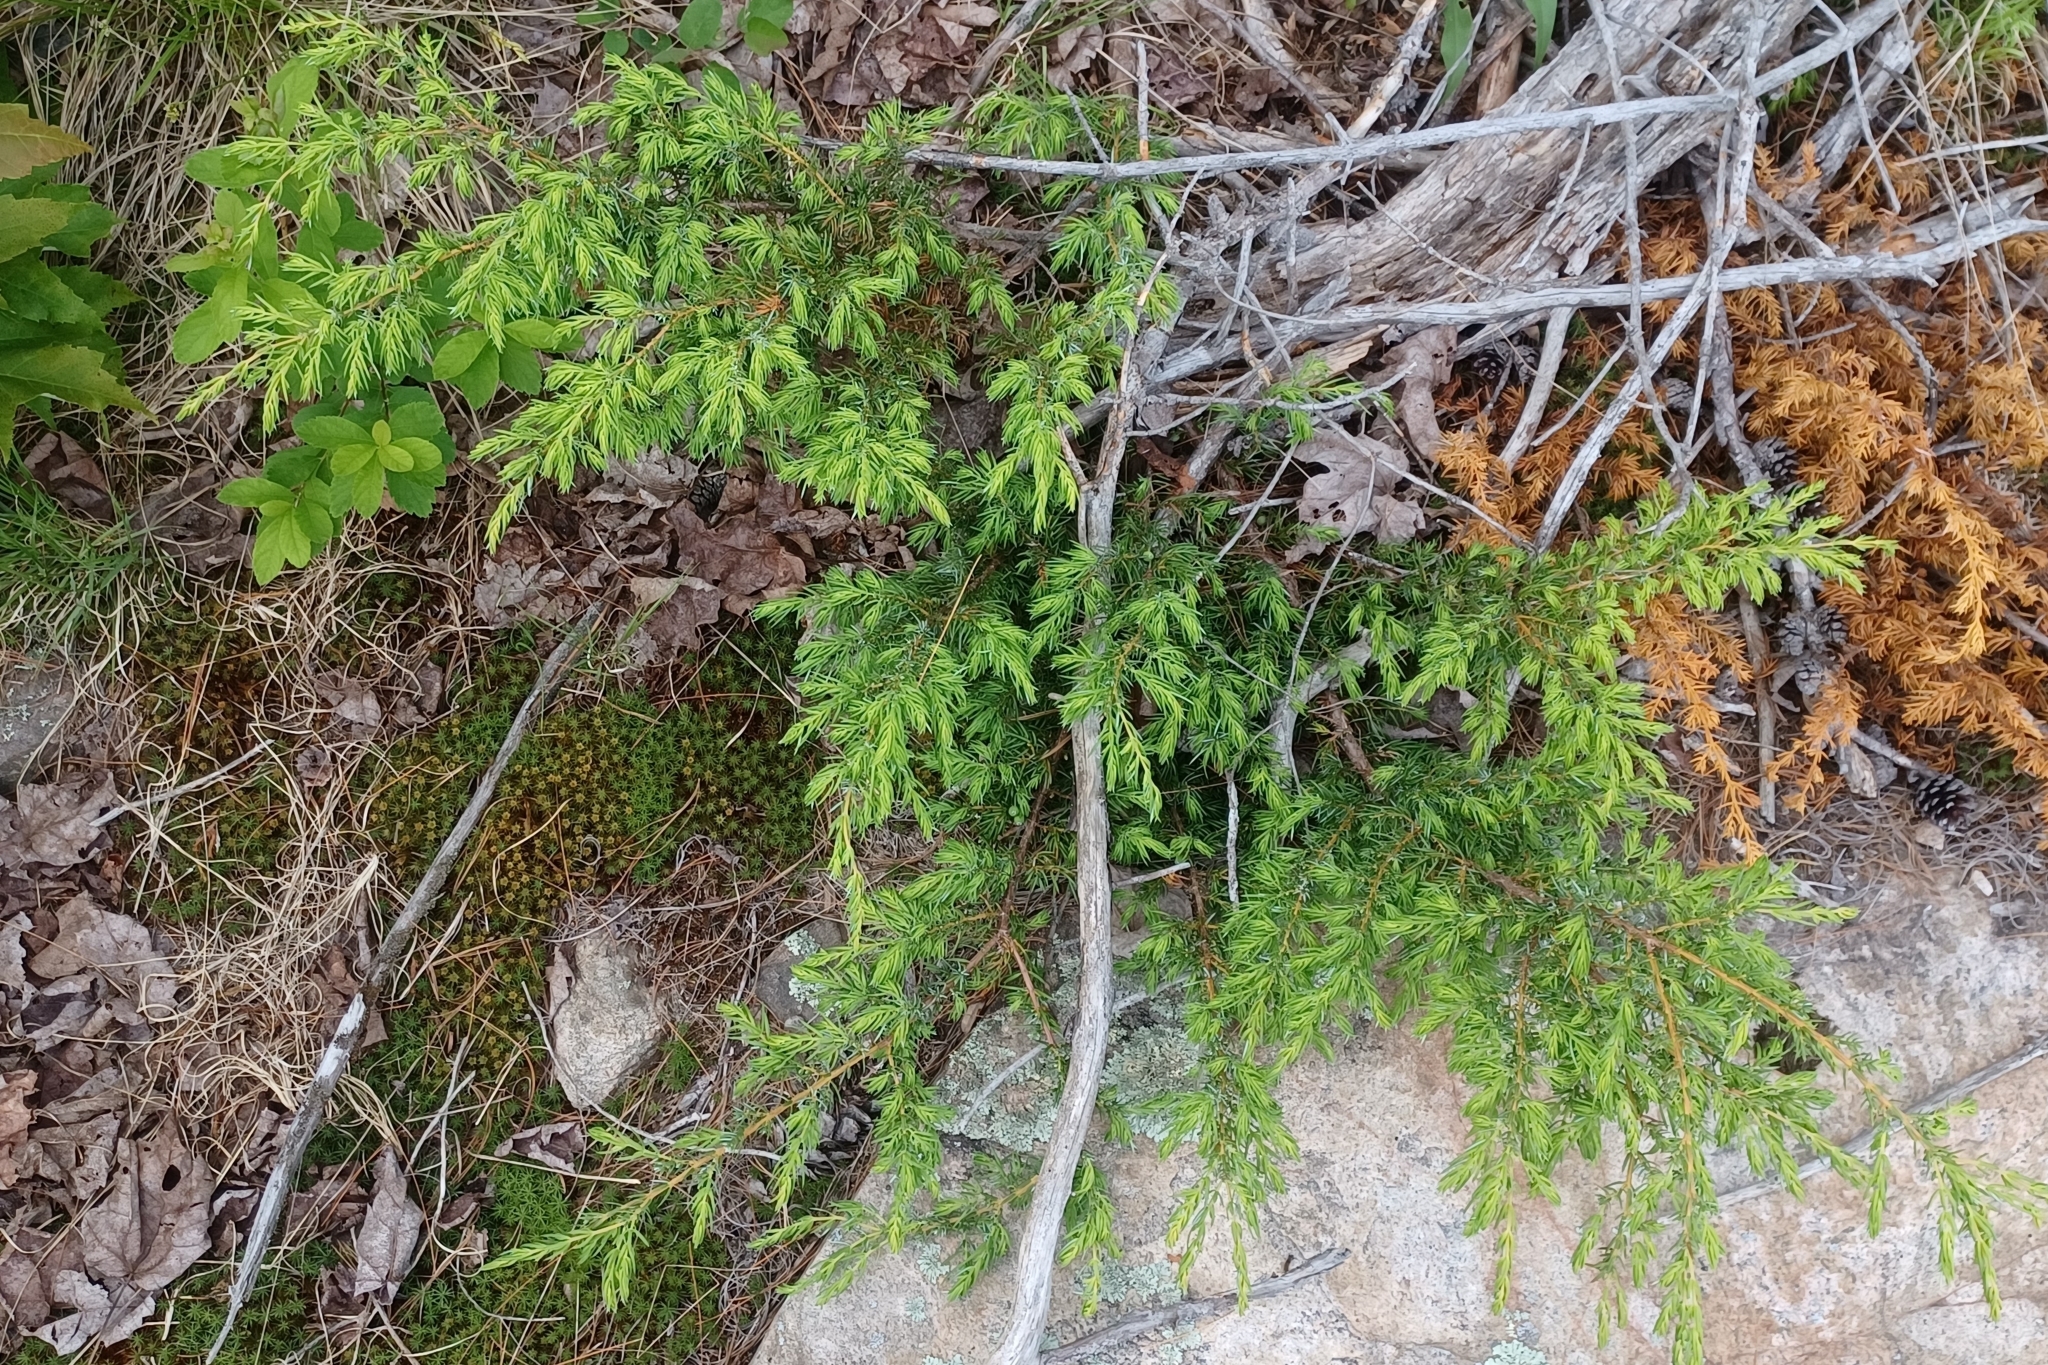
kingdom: Plantae
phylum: Tracheophyta
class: Pinopsida
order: Pinales
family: Cupressaceae
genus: Juniperus
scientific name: Juniperus communis
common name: Common juniper
